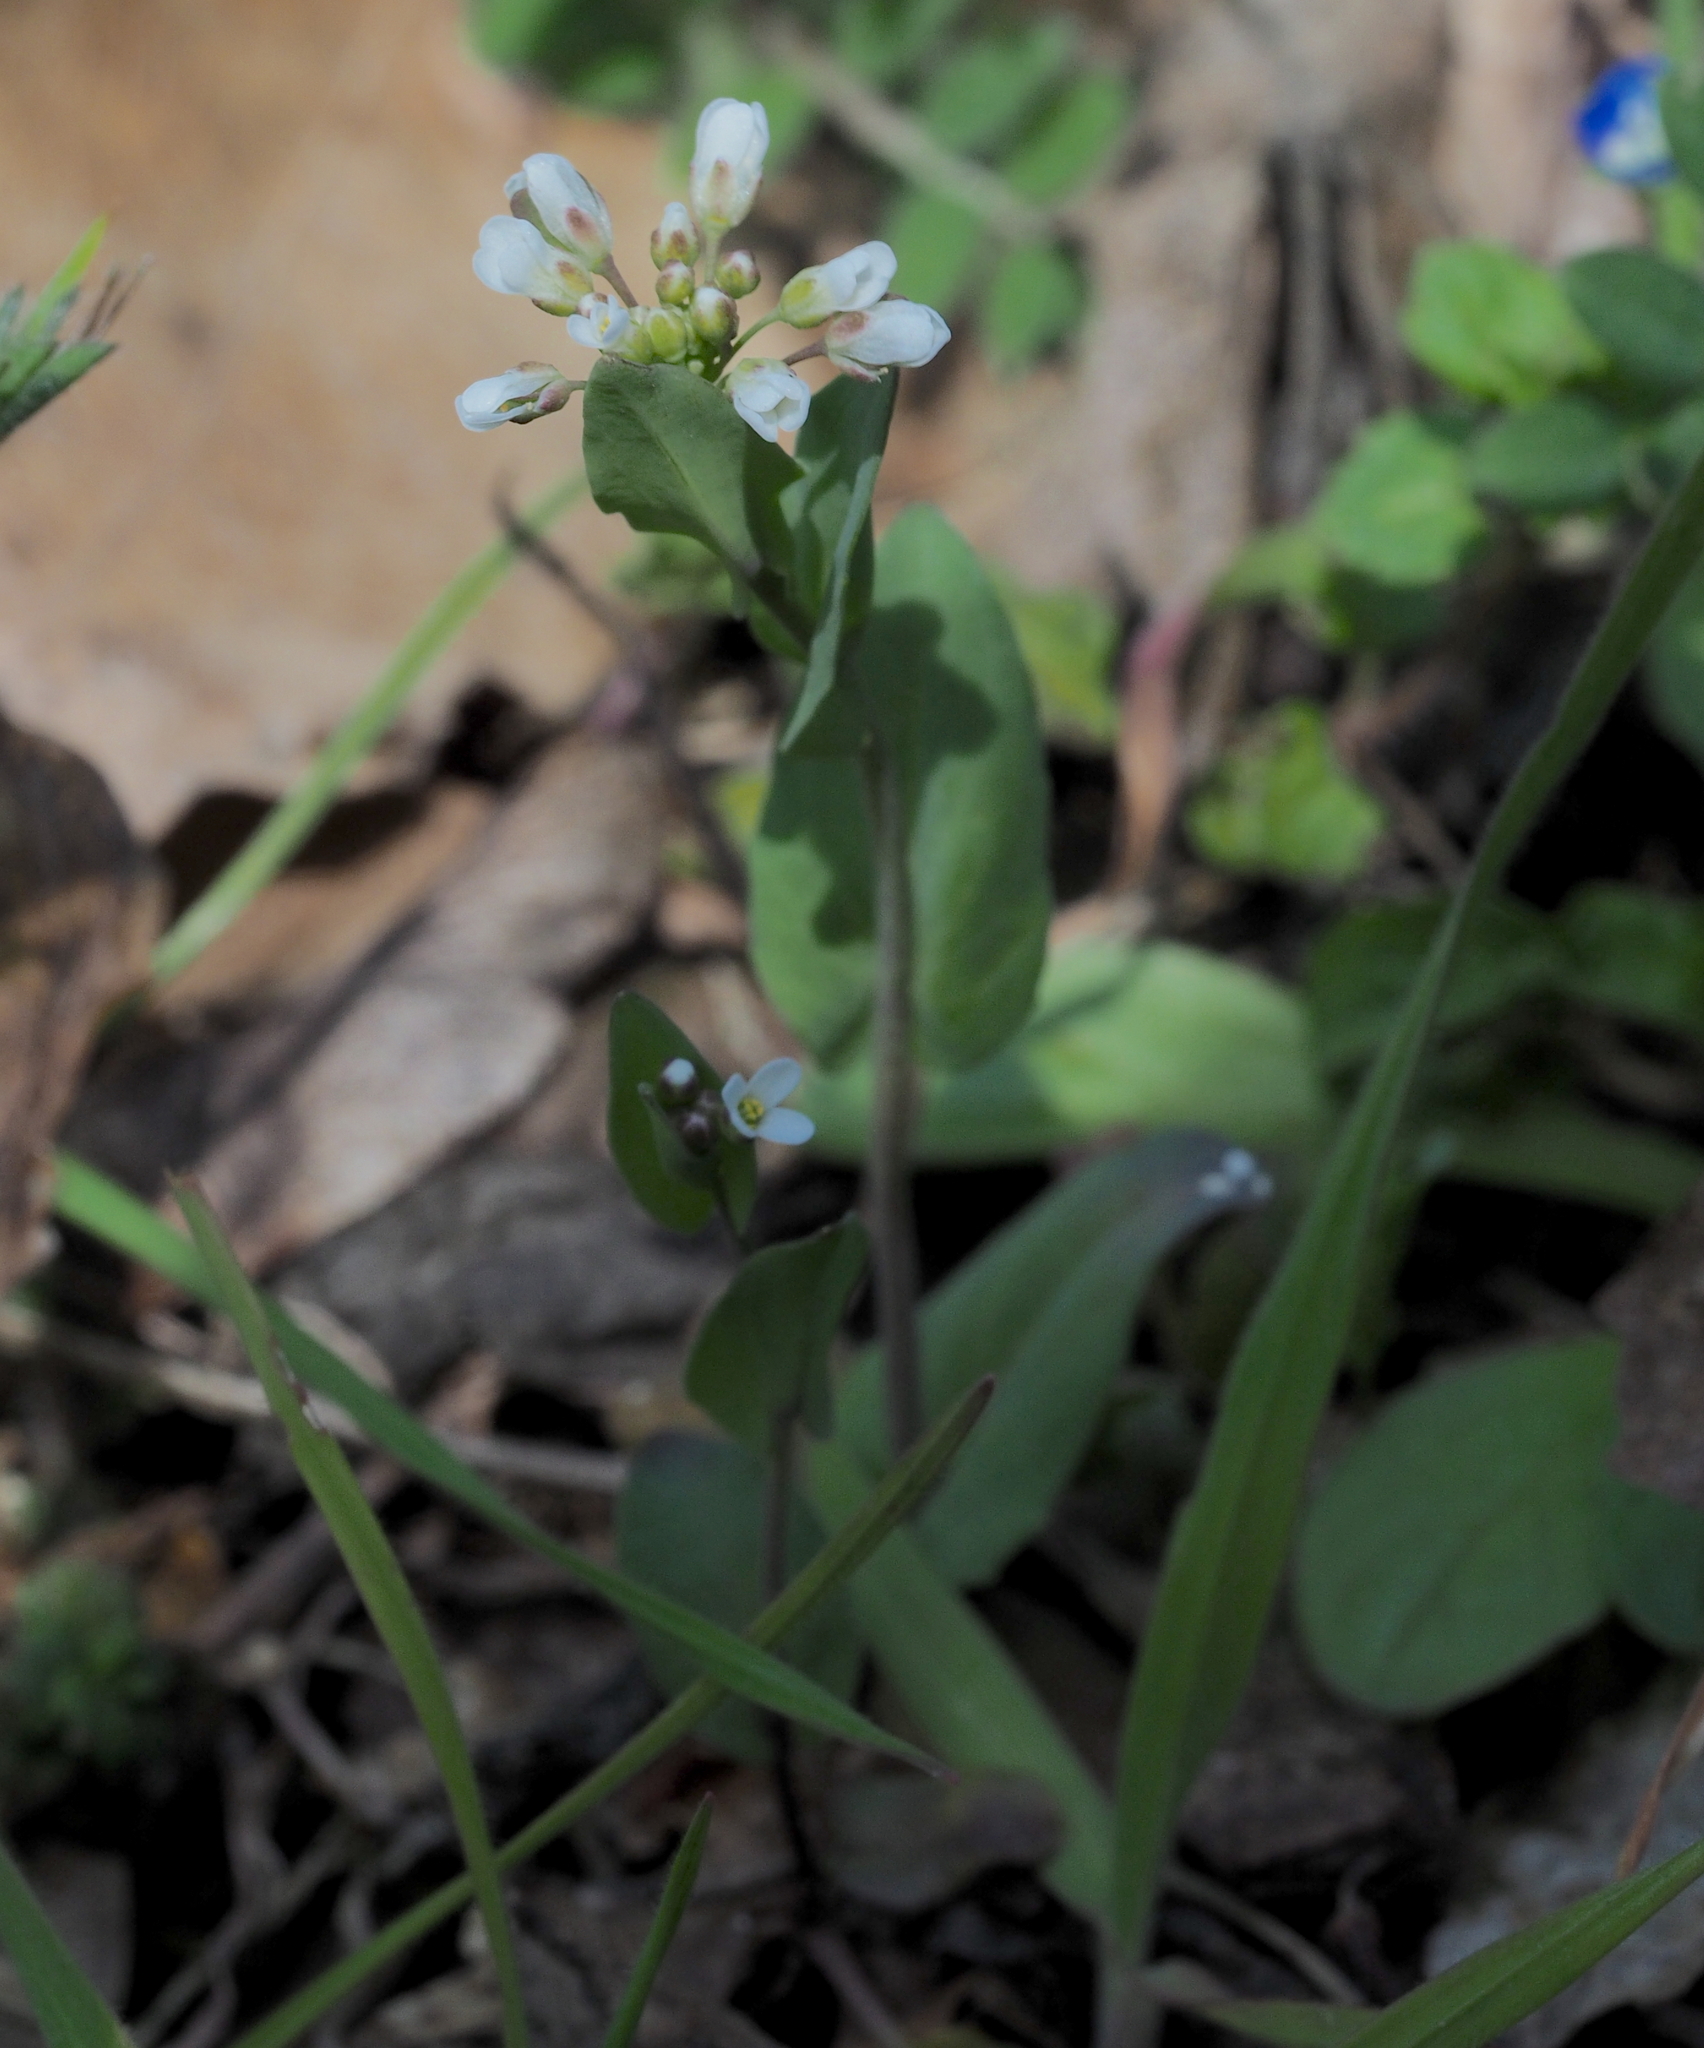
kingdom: Plantae
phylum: Tracheophyta
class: Magnoliopsida
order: Brassicales
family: Brassicaceae
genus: Noccaea
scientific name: Noccaea perfoliata
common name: Perfoliate pennycress
